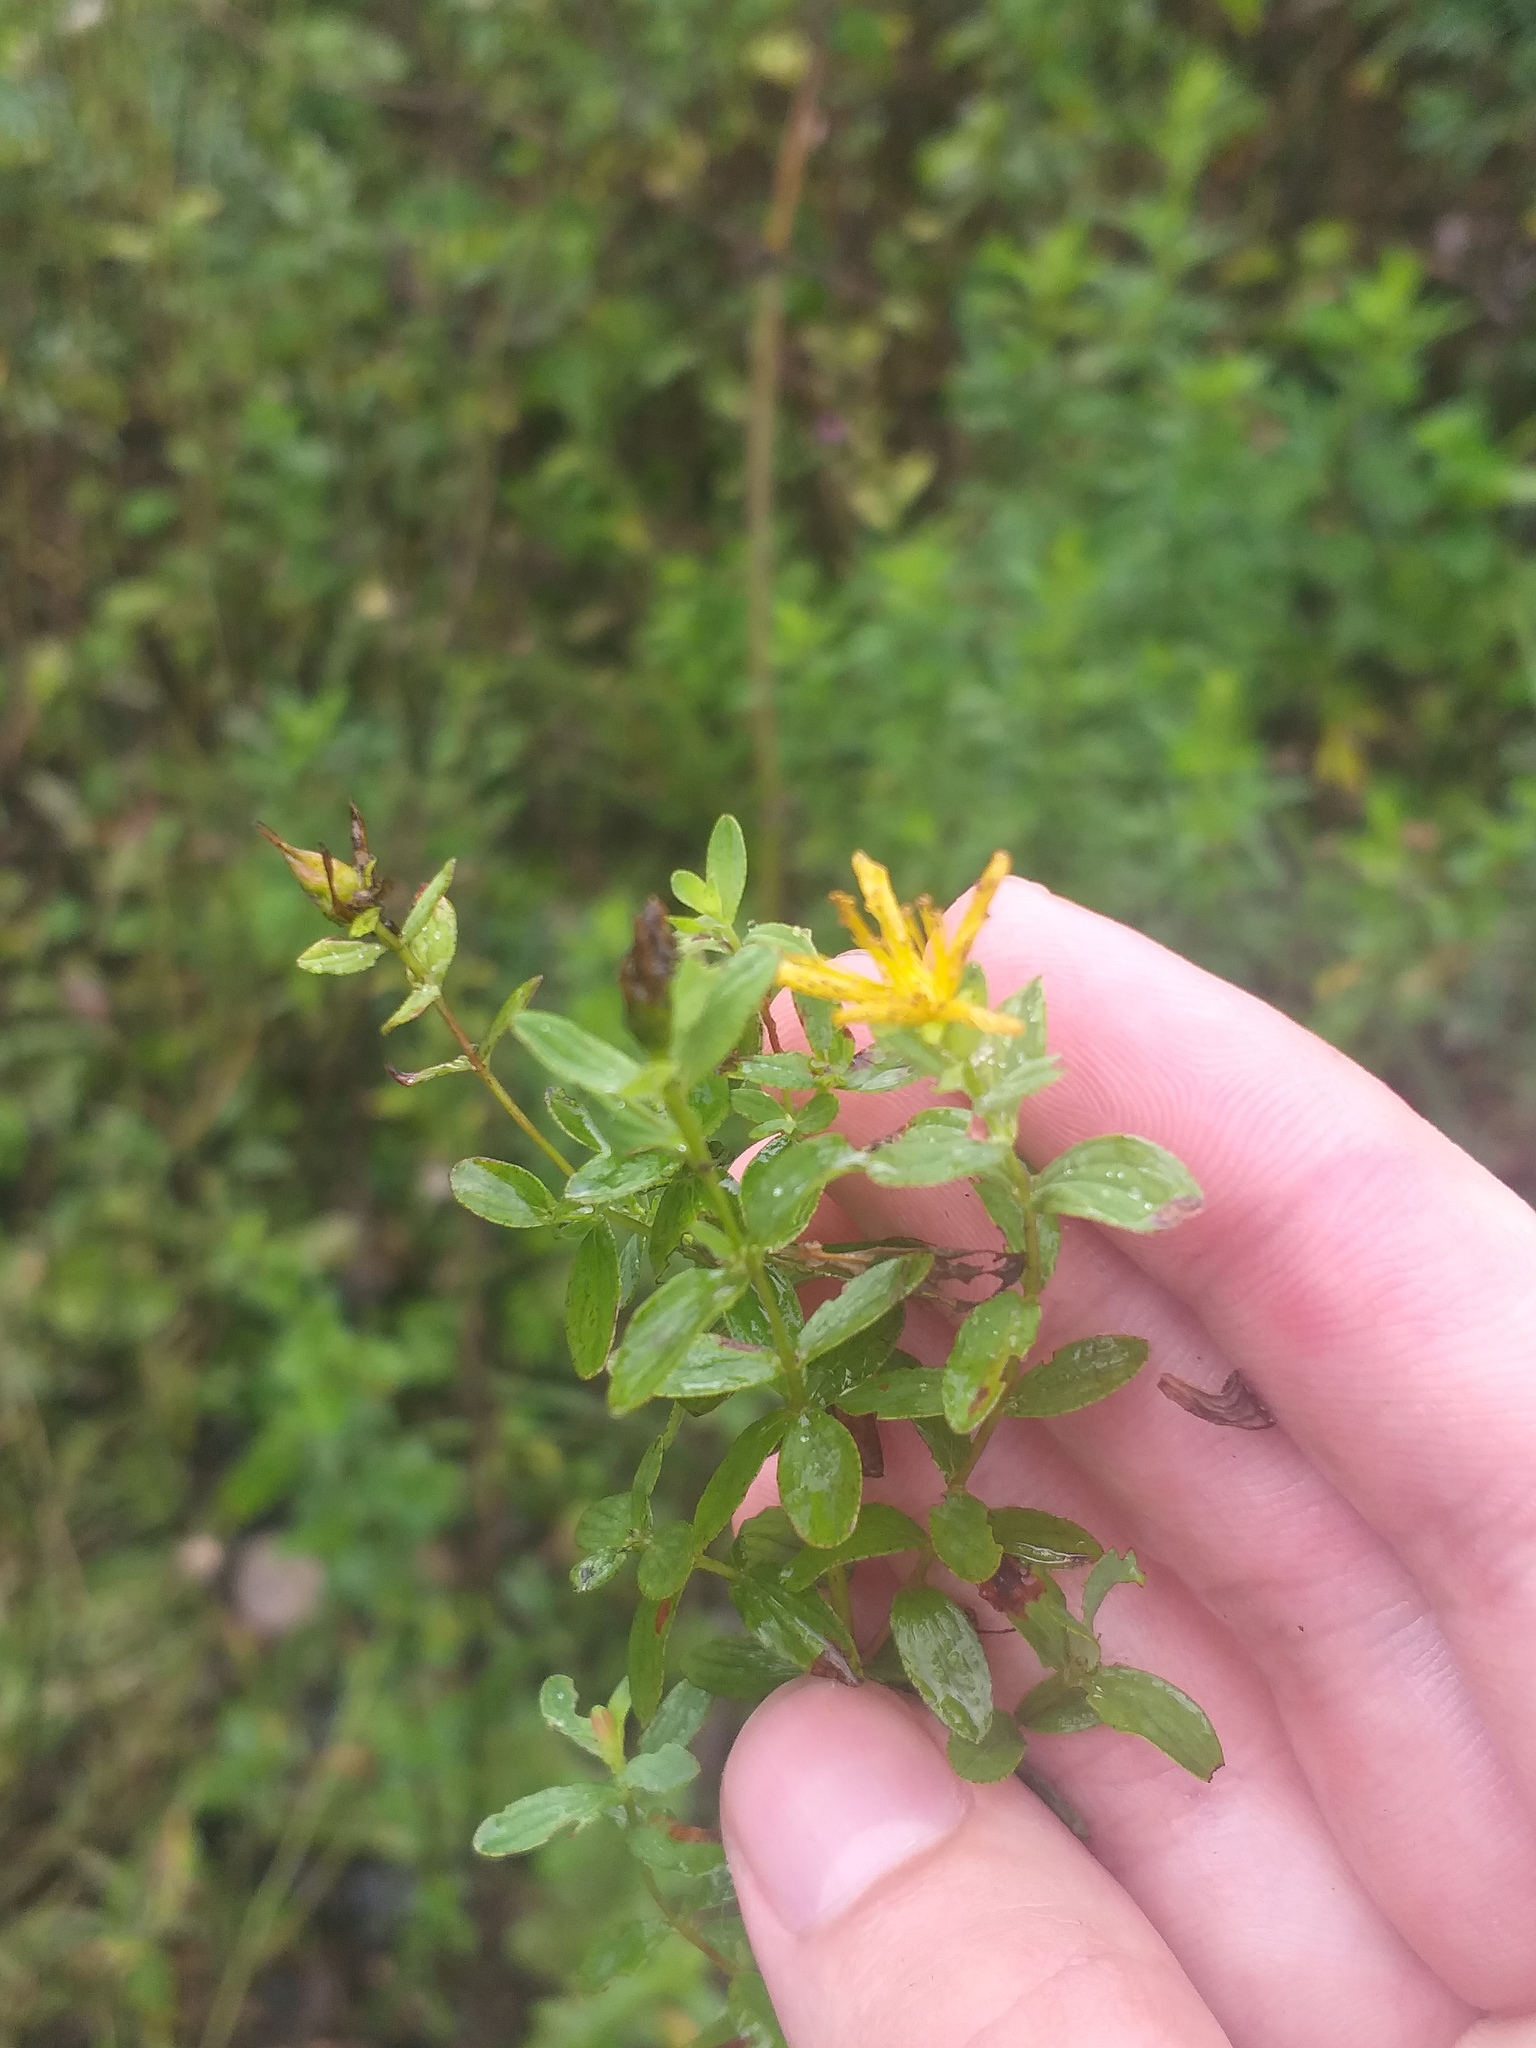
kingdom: Plantae
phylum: Tracheophyta
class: Magnoliopsida
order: Malpighiales
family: Hypericaceae
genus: Hypericum
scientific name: Hypericum maculatum
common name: Imperforate st. john's-wort
